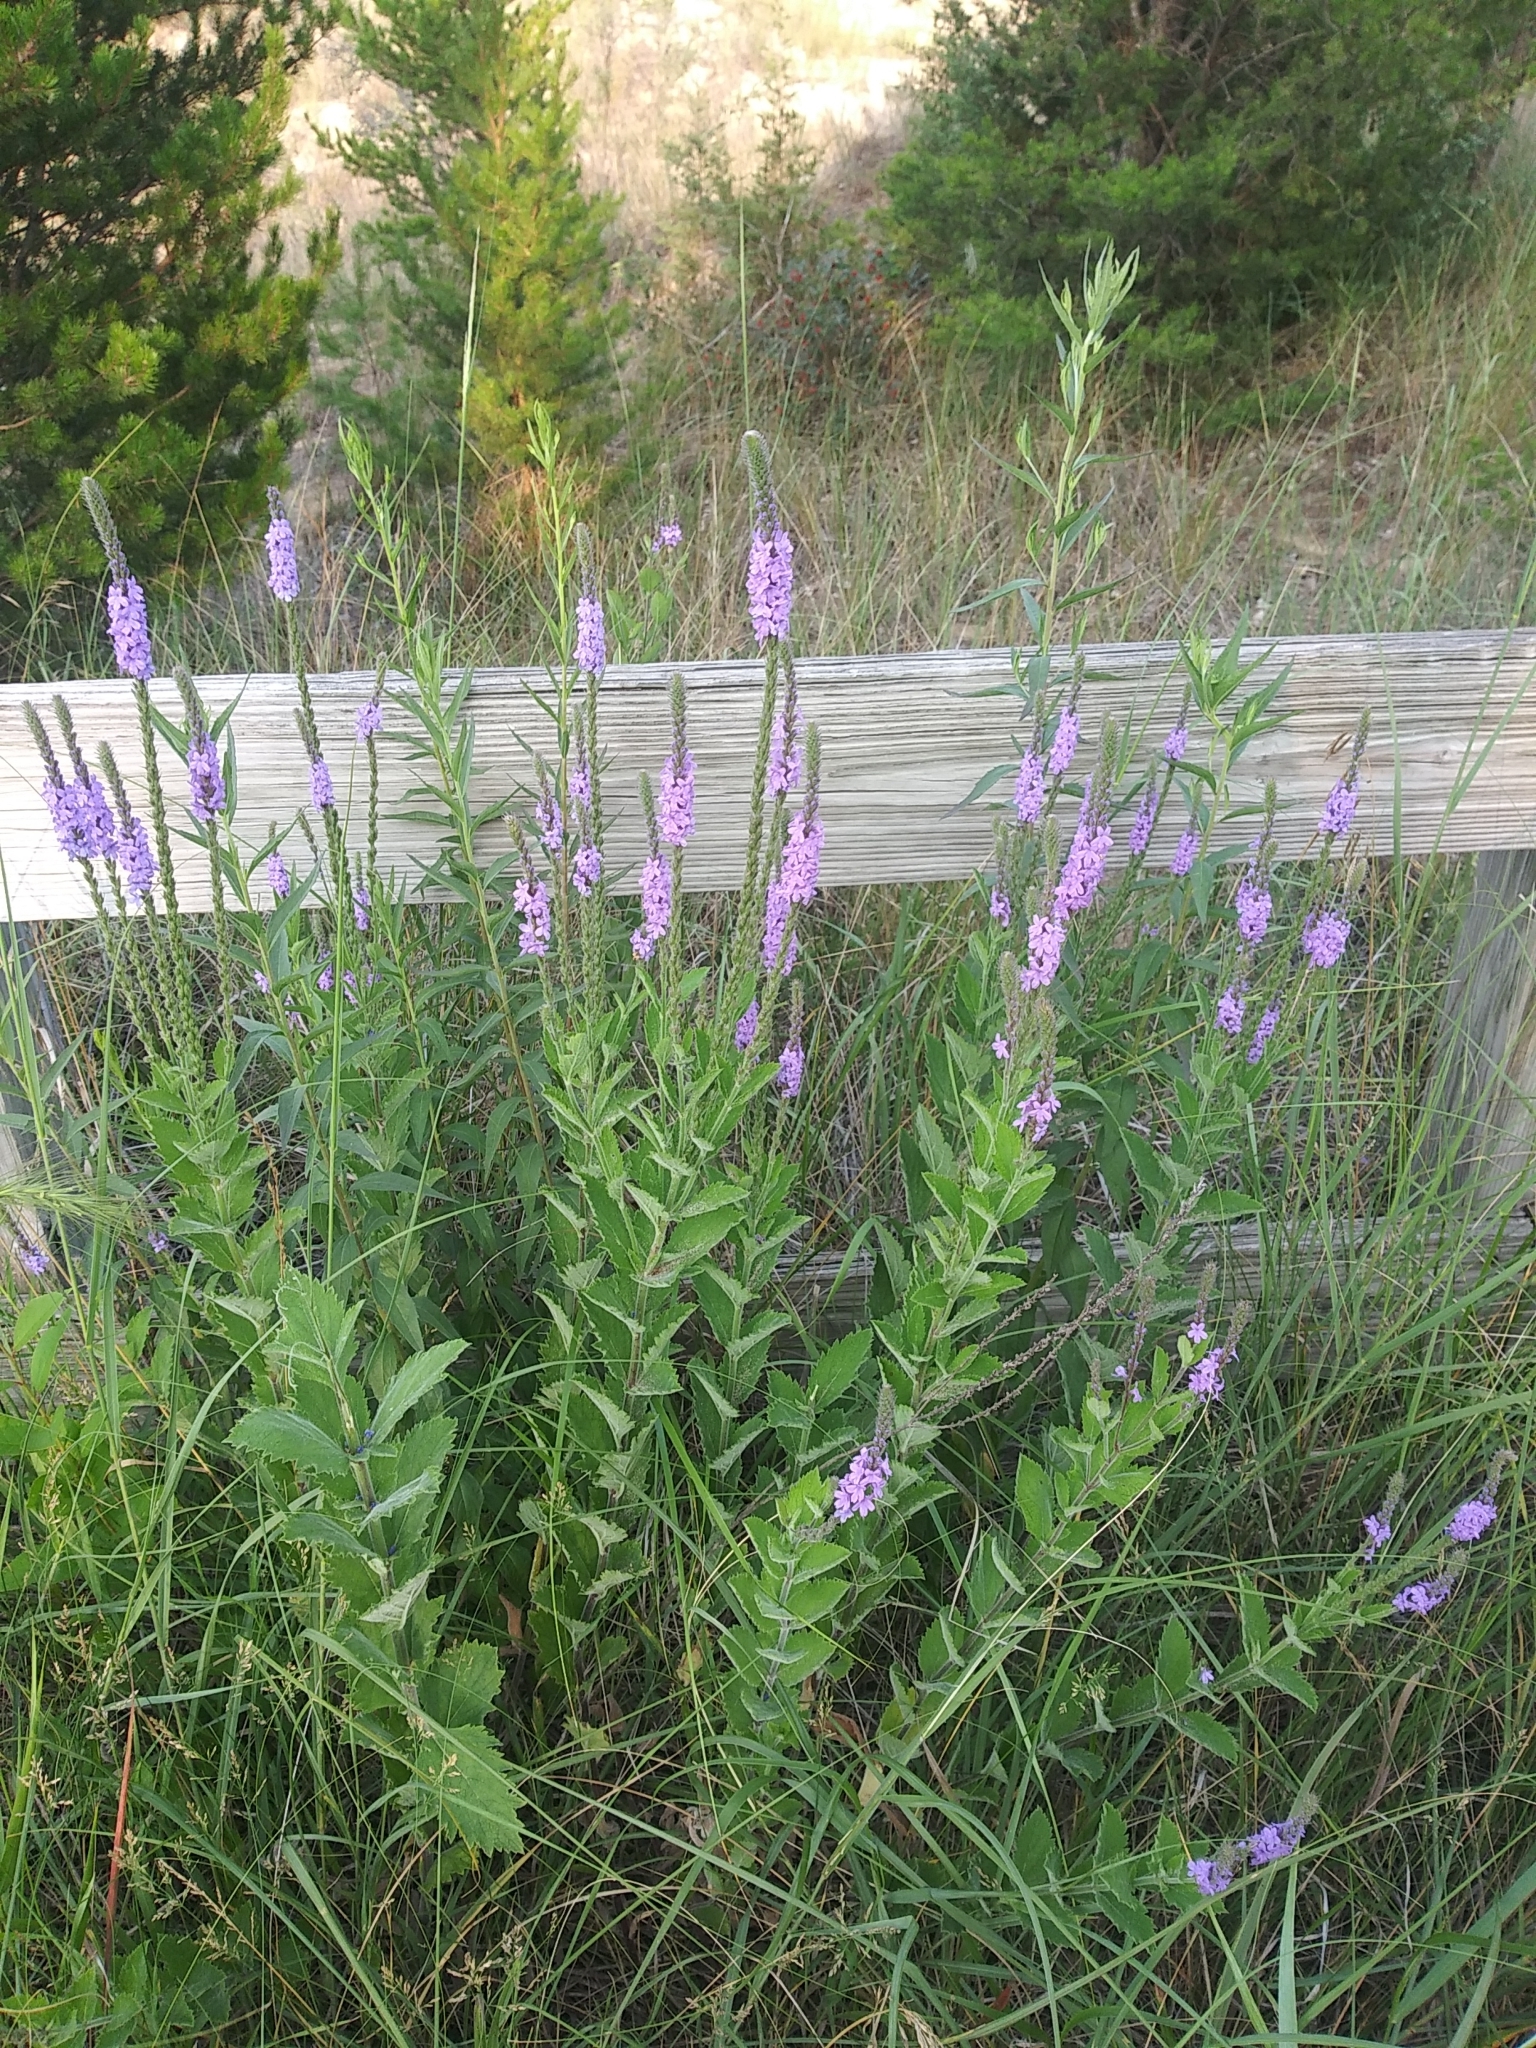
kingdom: Plantae
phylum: Tracheophyta
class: Magnoliopsida
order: Lamiales
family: Verbenaceae
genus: Verbena
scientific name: Verbena stricta
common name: Hoary vervain
